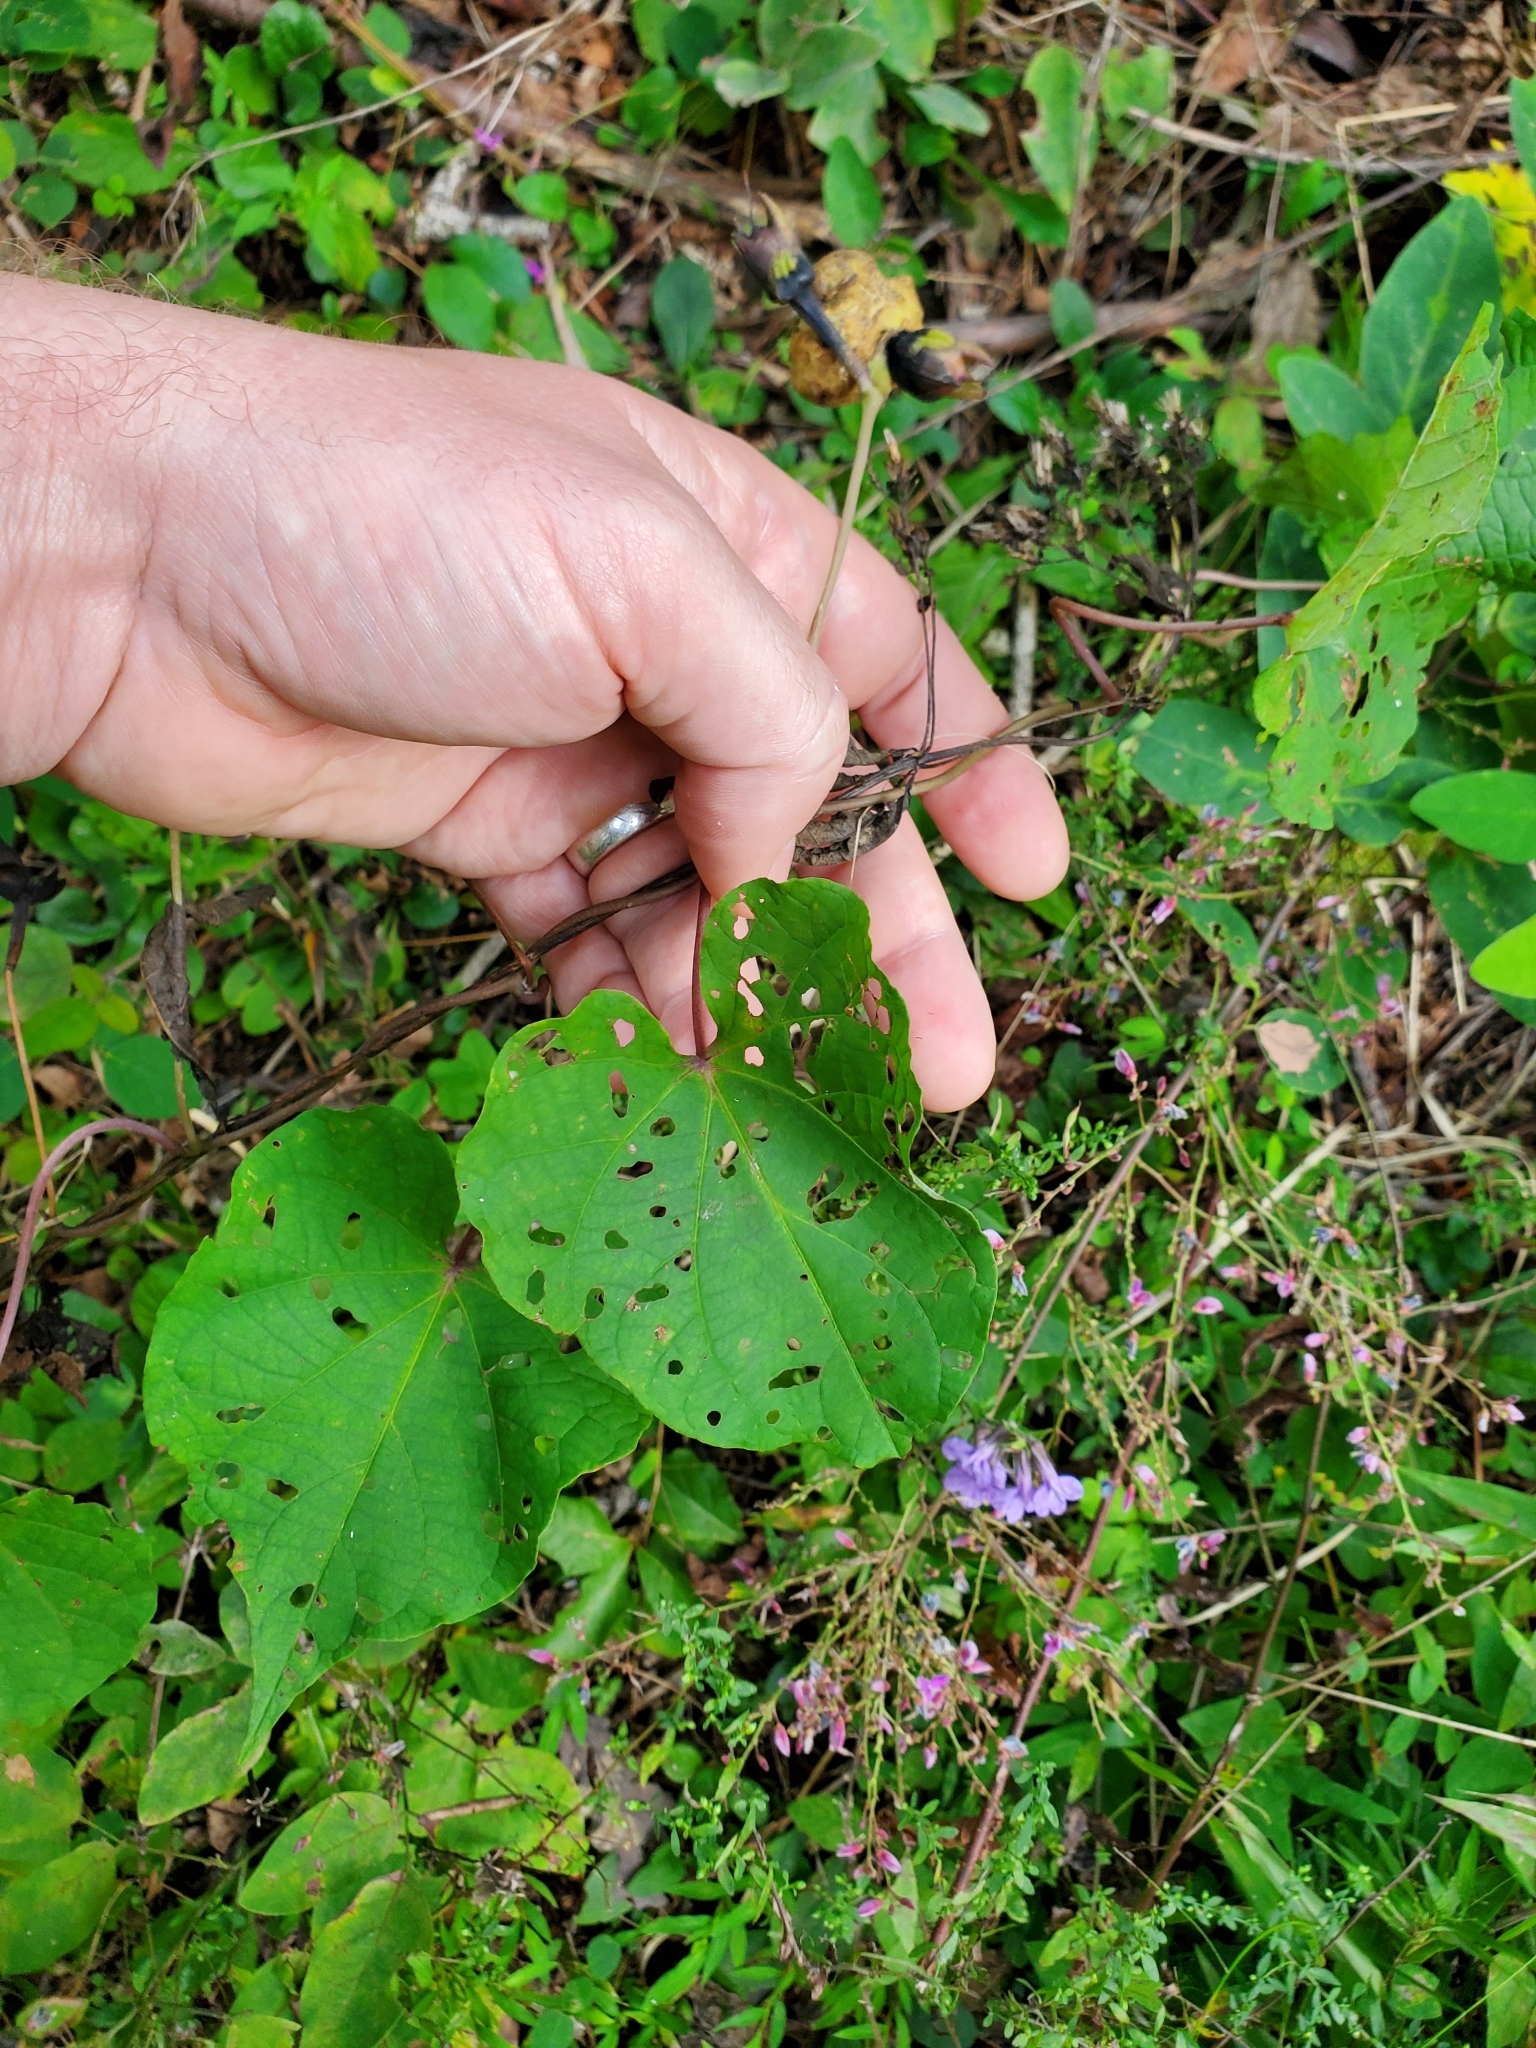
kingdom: Plantae
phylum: Tracheophyta
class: Magnoliopsida
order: Solanales
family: Convolvulaceae
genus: Ipomoea
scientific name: Ipomoea pandurata
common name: Man-of-the-earth
